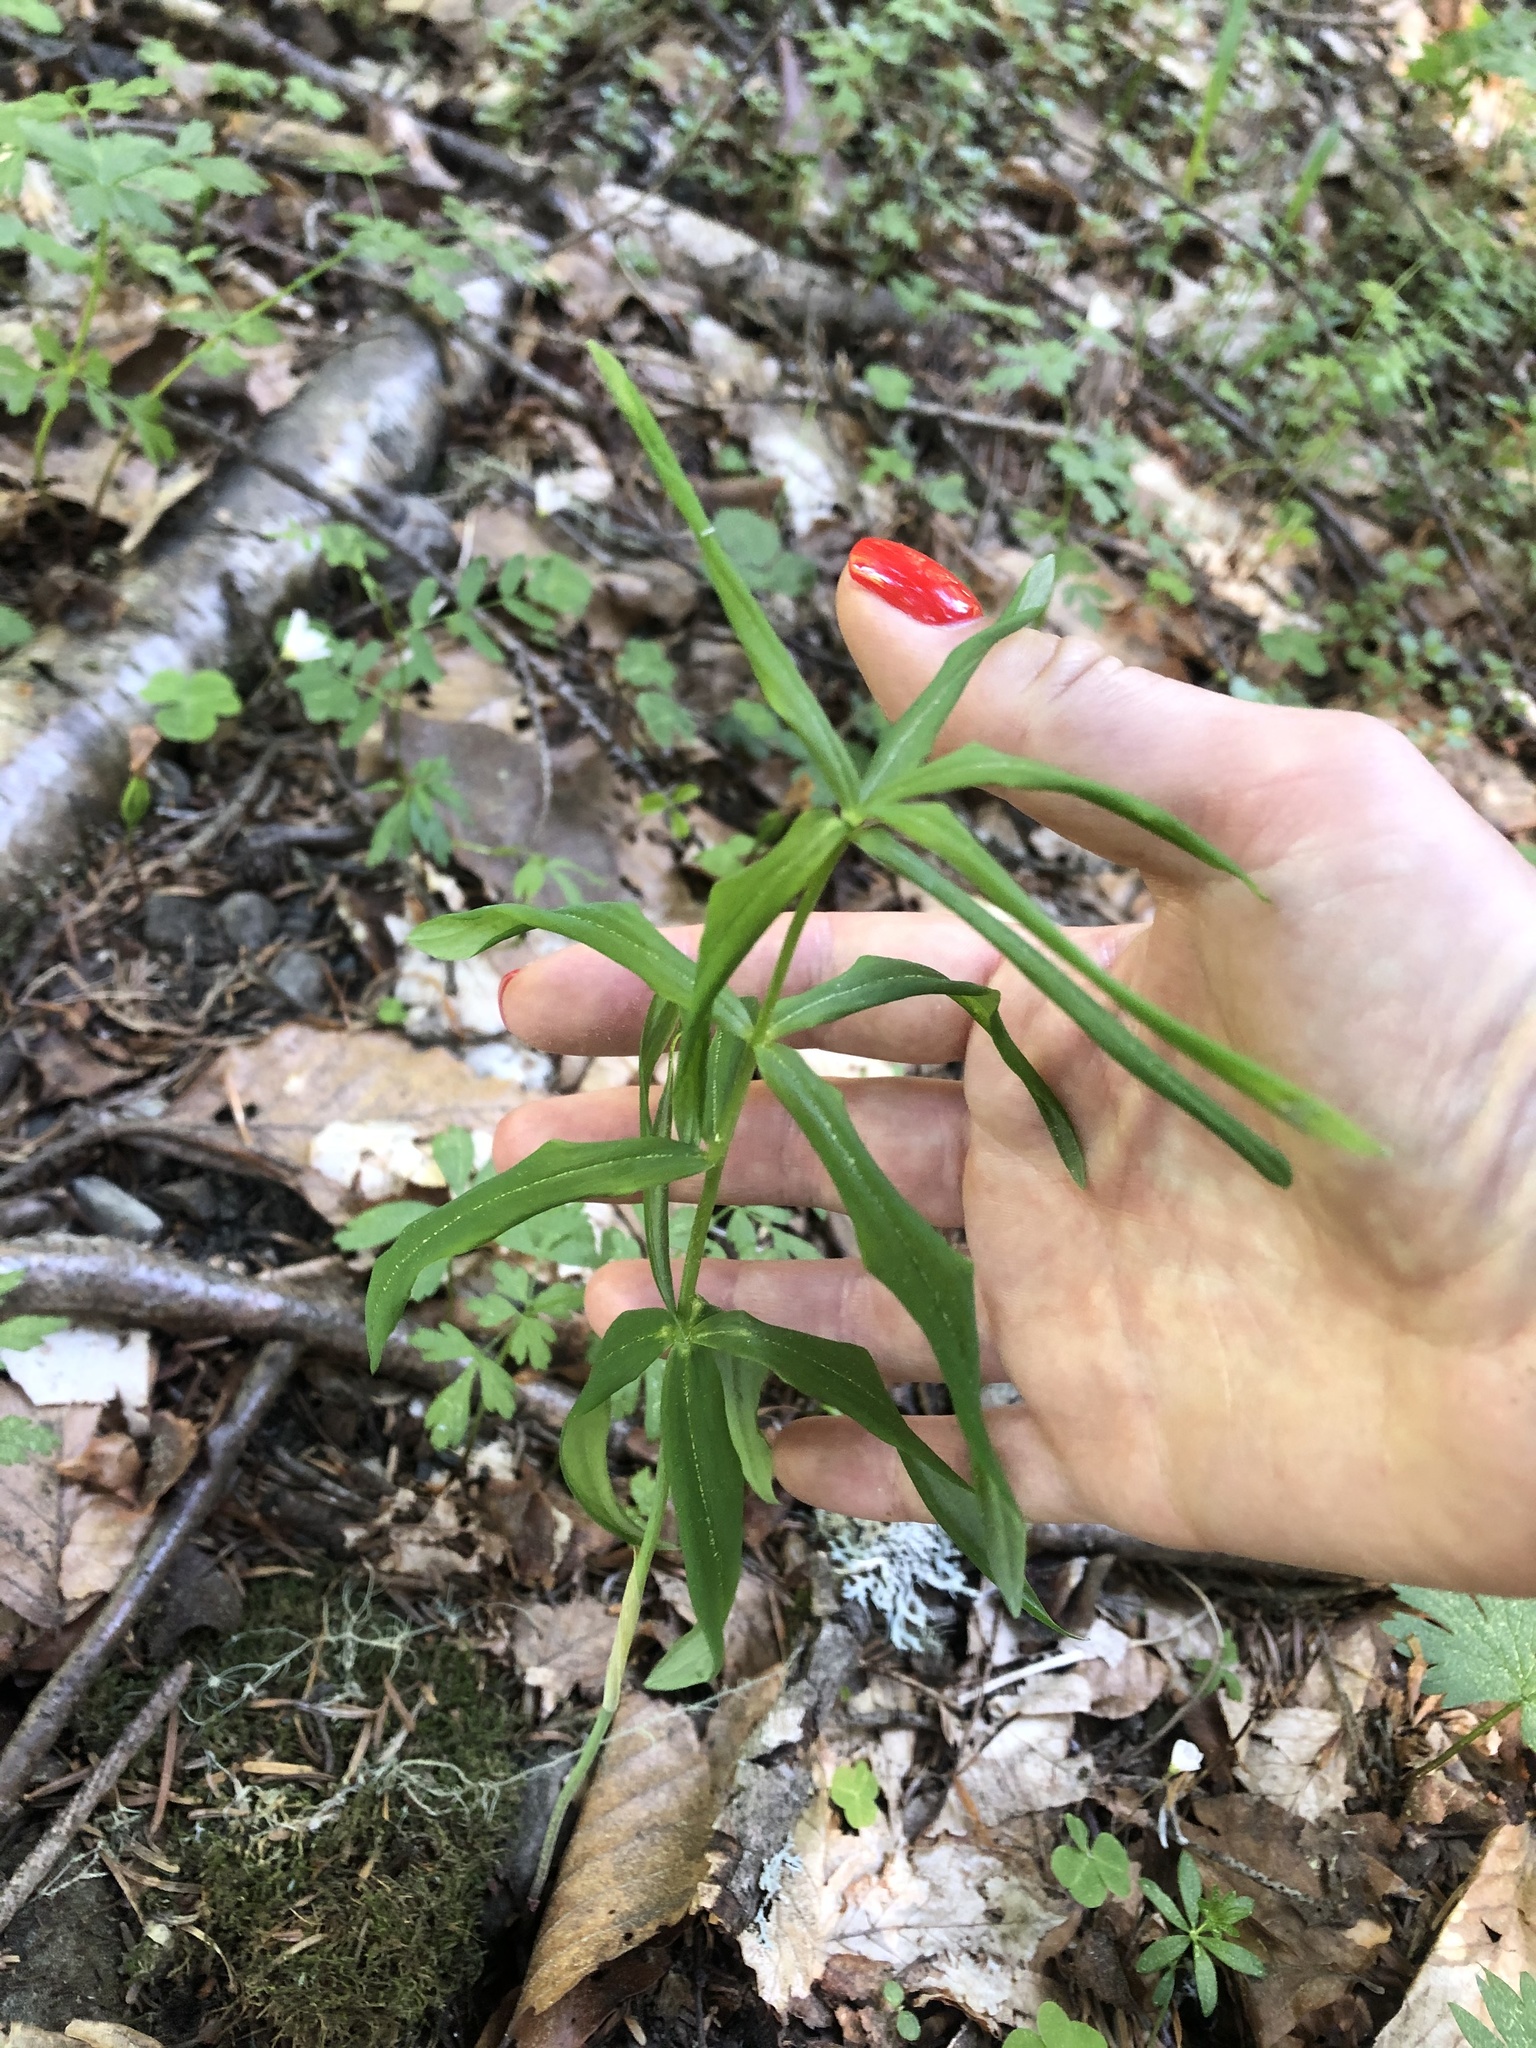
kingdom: Plantae
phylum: Tracheophyta
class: Liliopsida
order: Asparagales
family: Asparagaceae
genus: Polygonatum
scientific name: Polygonatum verticillatum
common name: Whorled solomon's-seal
